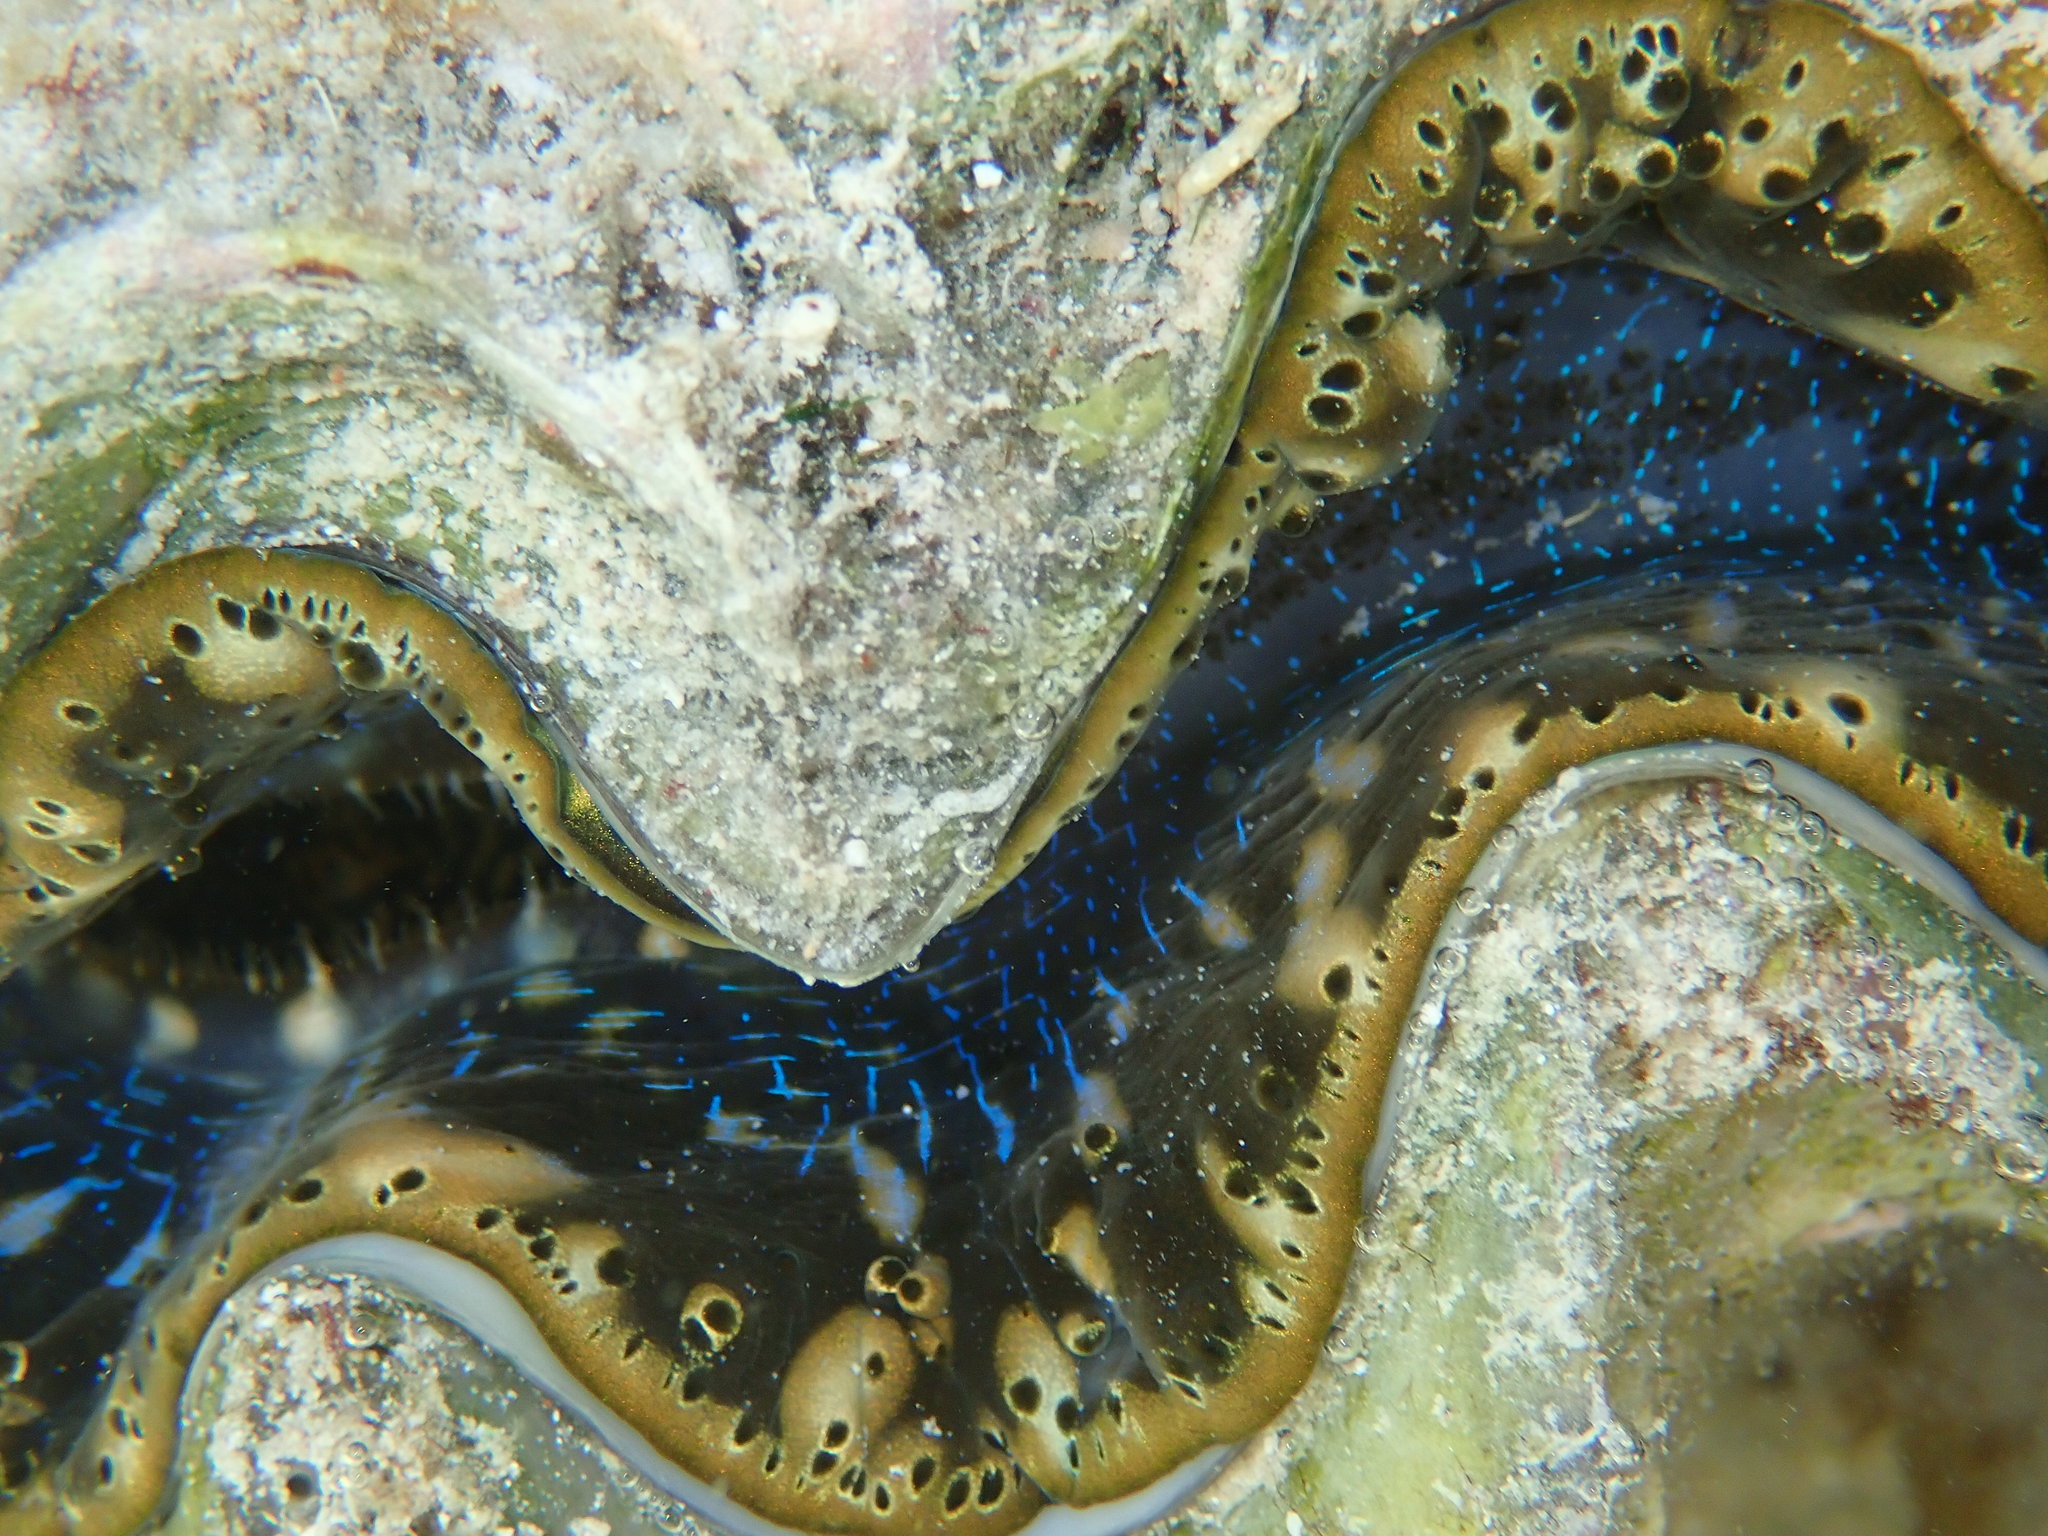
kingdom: Animalia
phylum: Mollusca
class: Bivalvia
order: Cardiida
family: Cardiidae
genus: Tridacna
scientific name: Tridacna maxima
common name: Small giant clam
